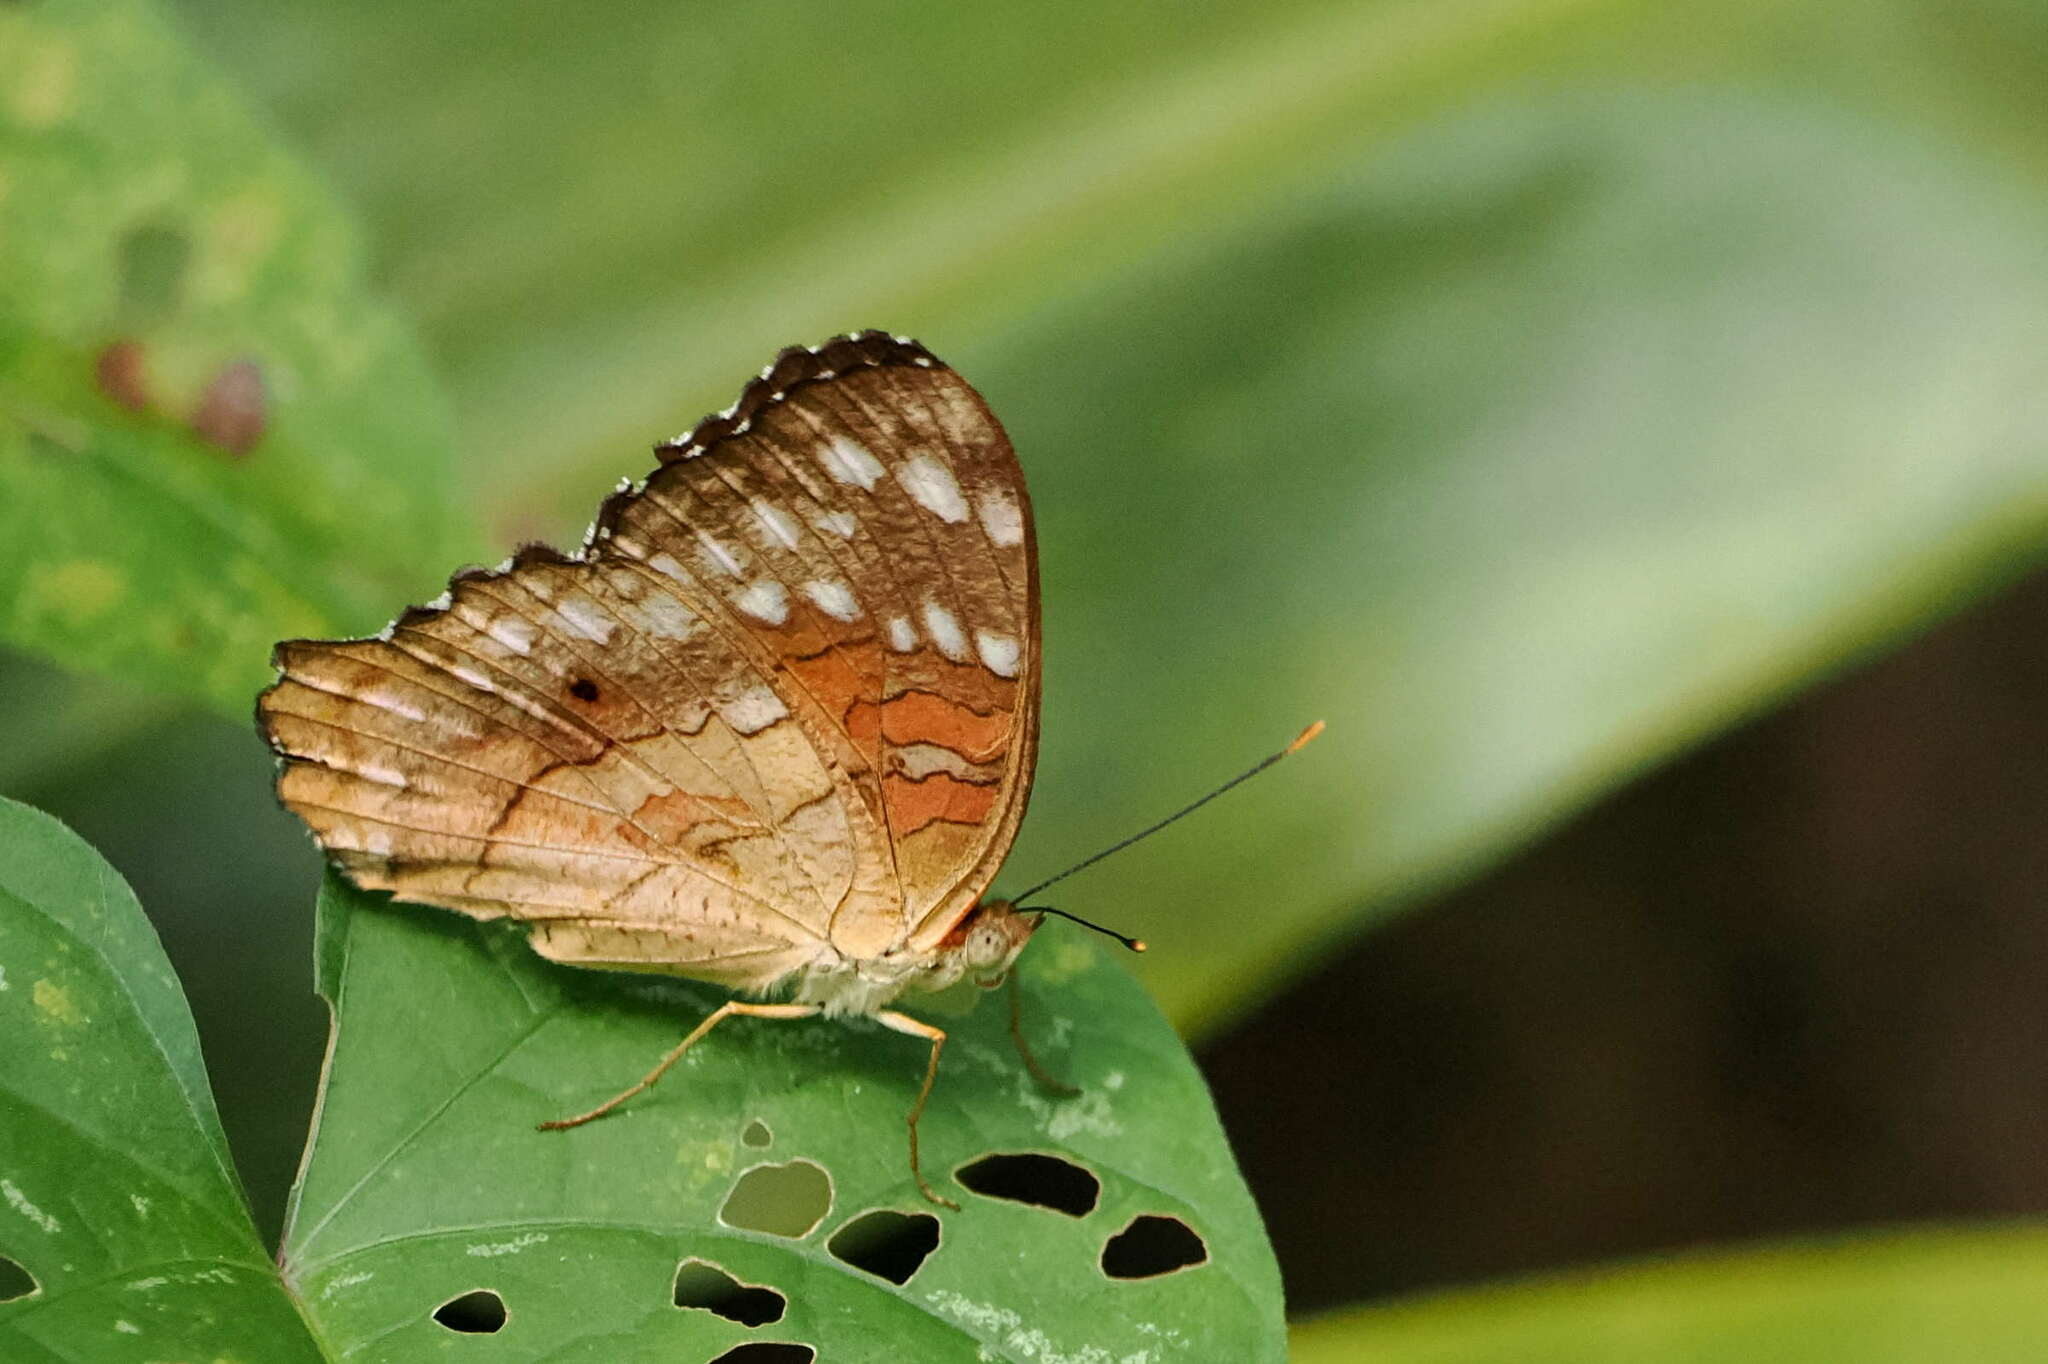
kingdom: Animalia
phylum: Arthropoda
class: Insecta
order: Lepidoptera
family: Nymphalidae
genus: Anartia
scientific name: Anartia amathea
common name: Red peacock
